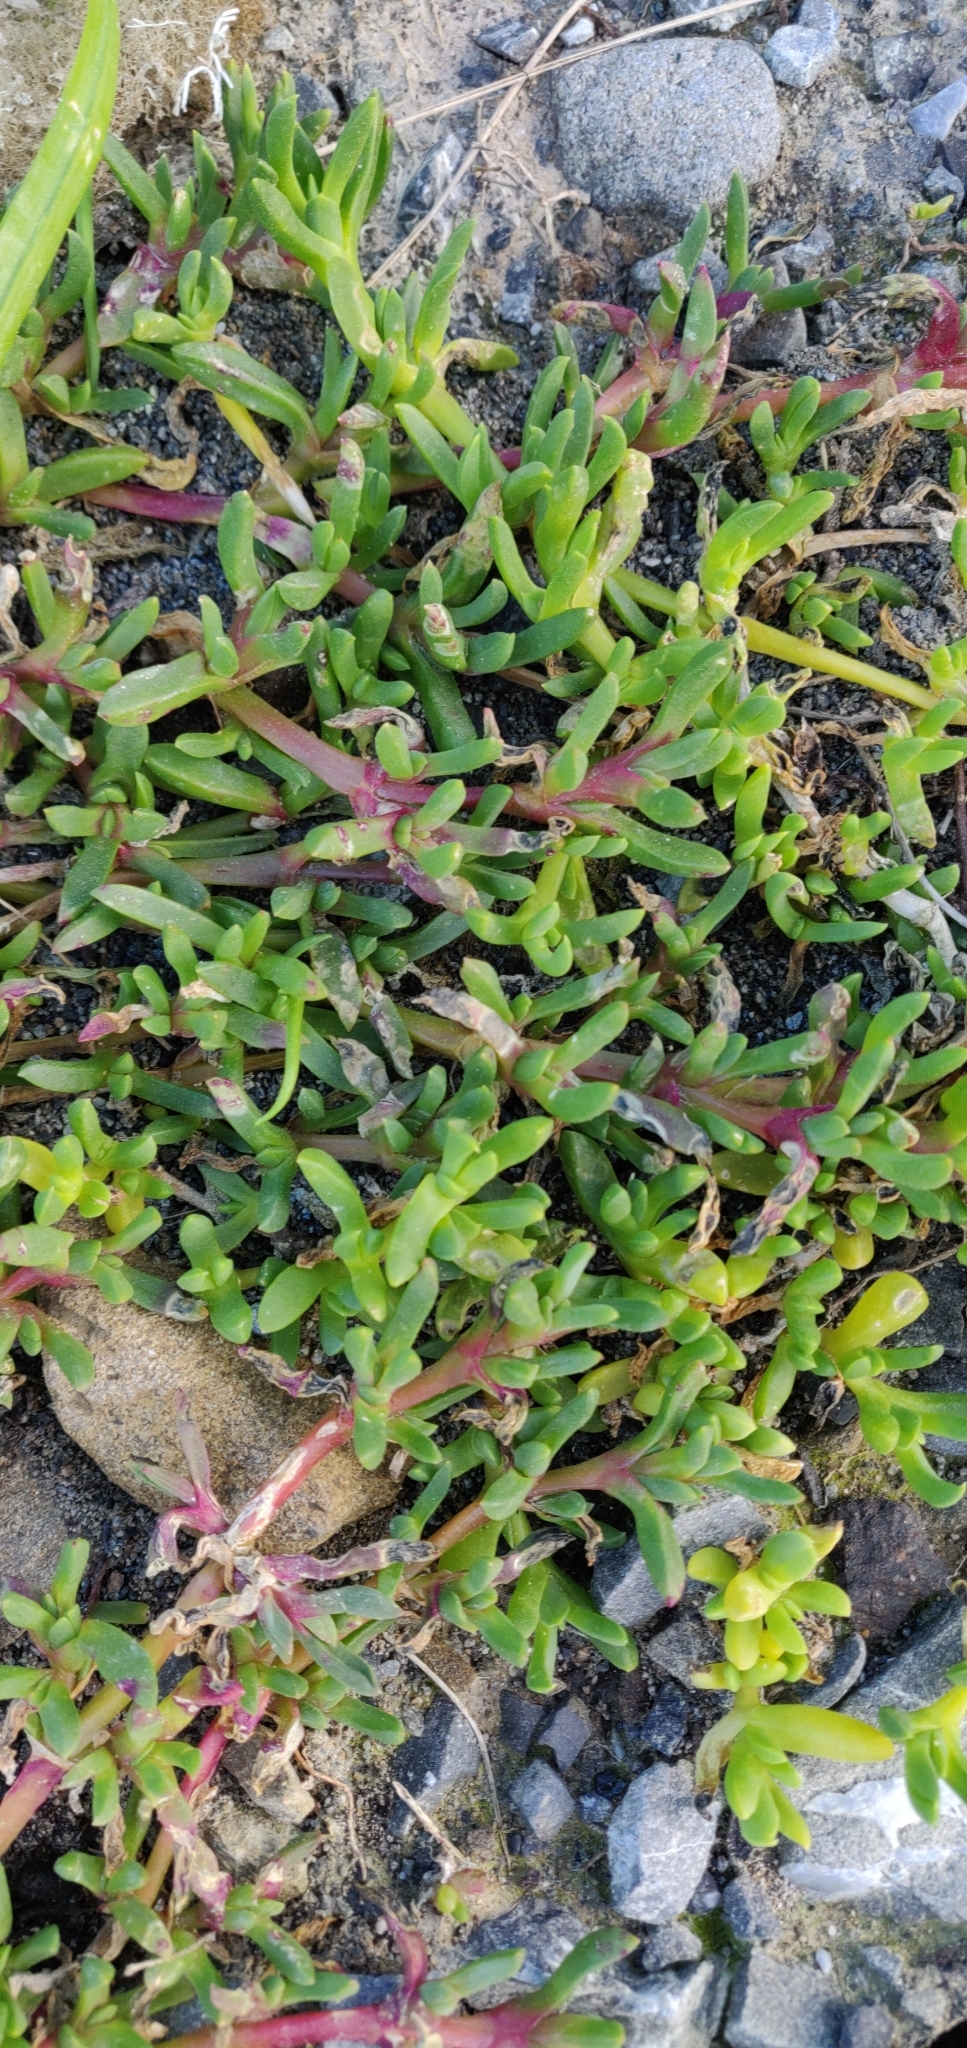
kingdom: Plantae
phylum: Tracheophyta
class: Magnoliopsida
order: Caryophyllales
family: Aizoaceae
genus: Disphyma
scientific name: Disphyma australe
